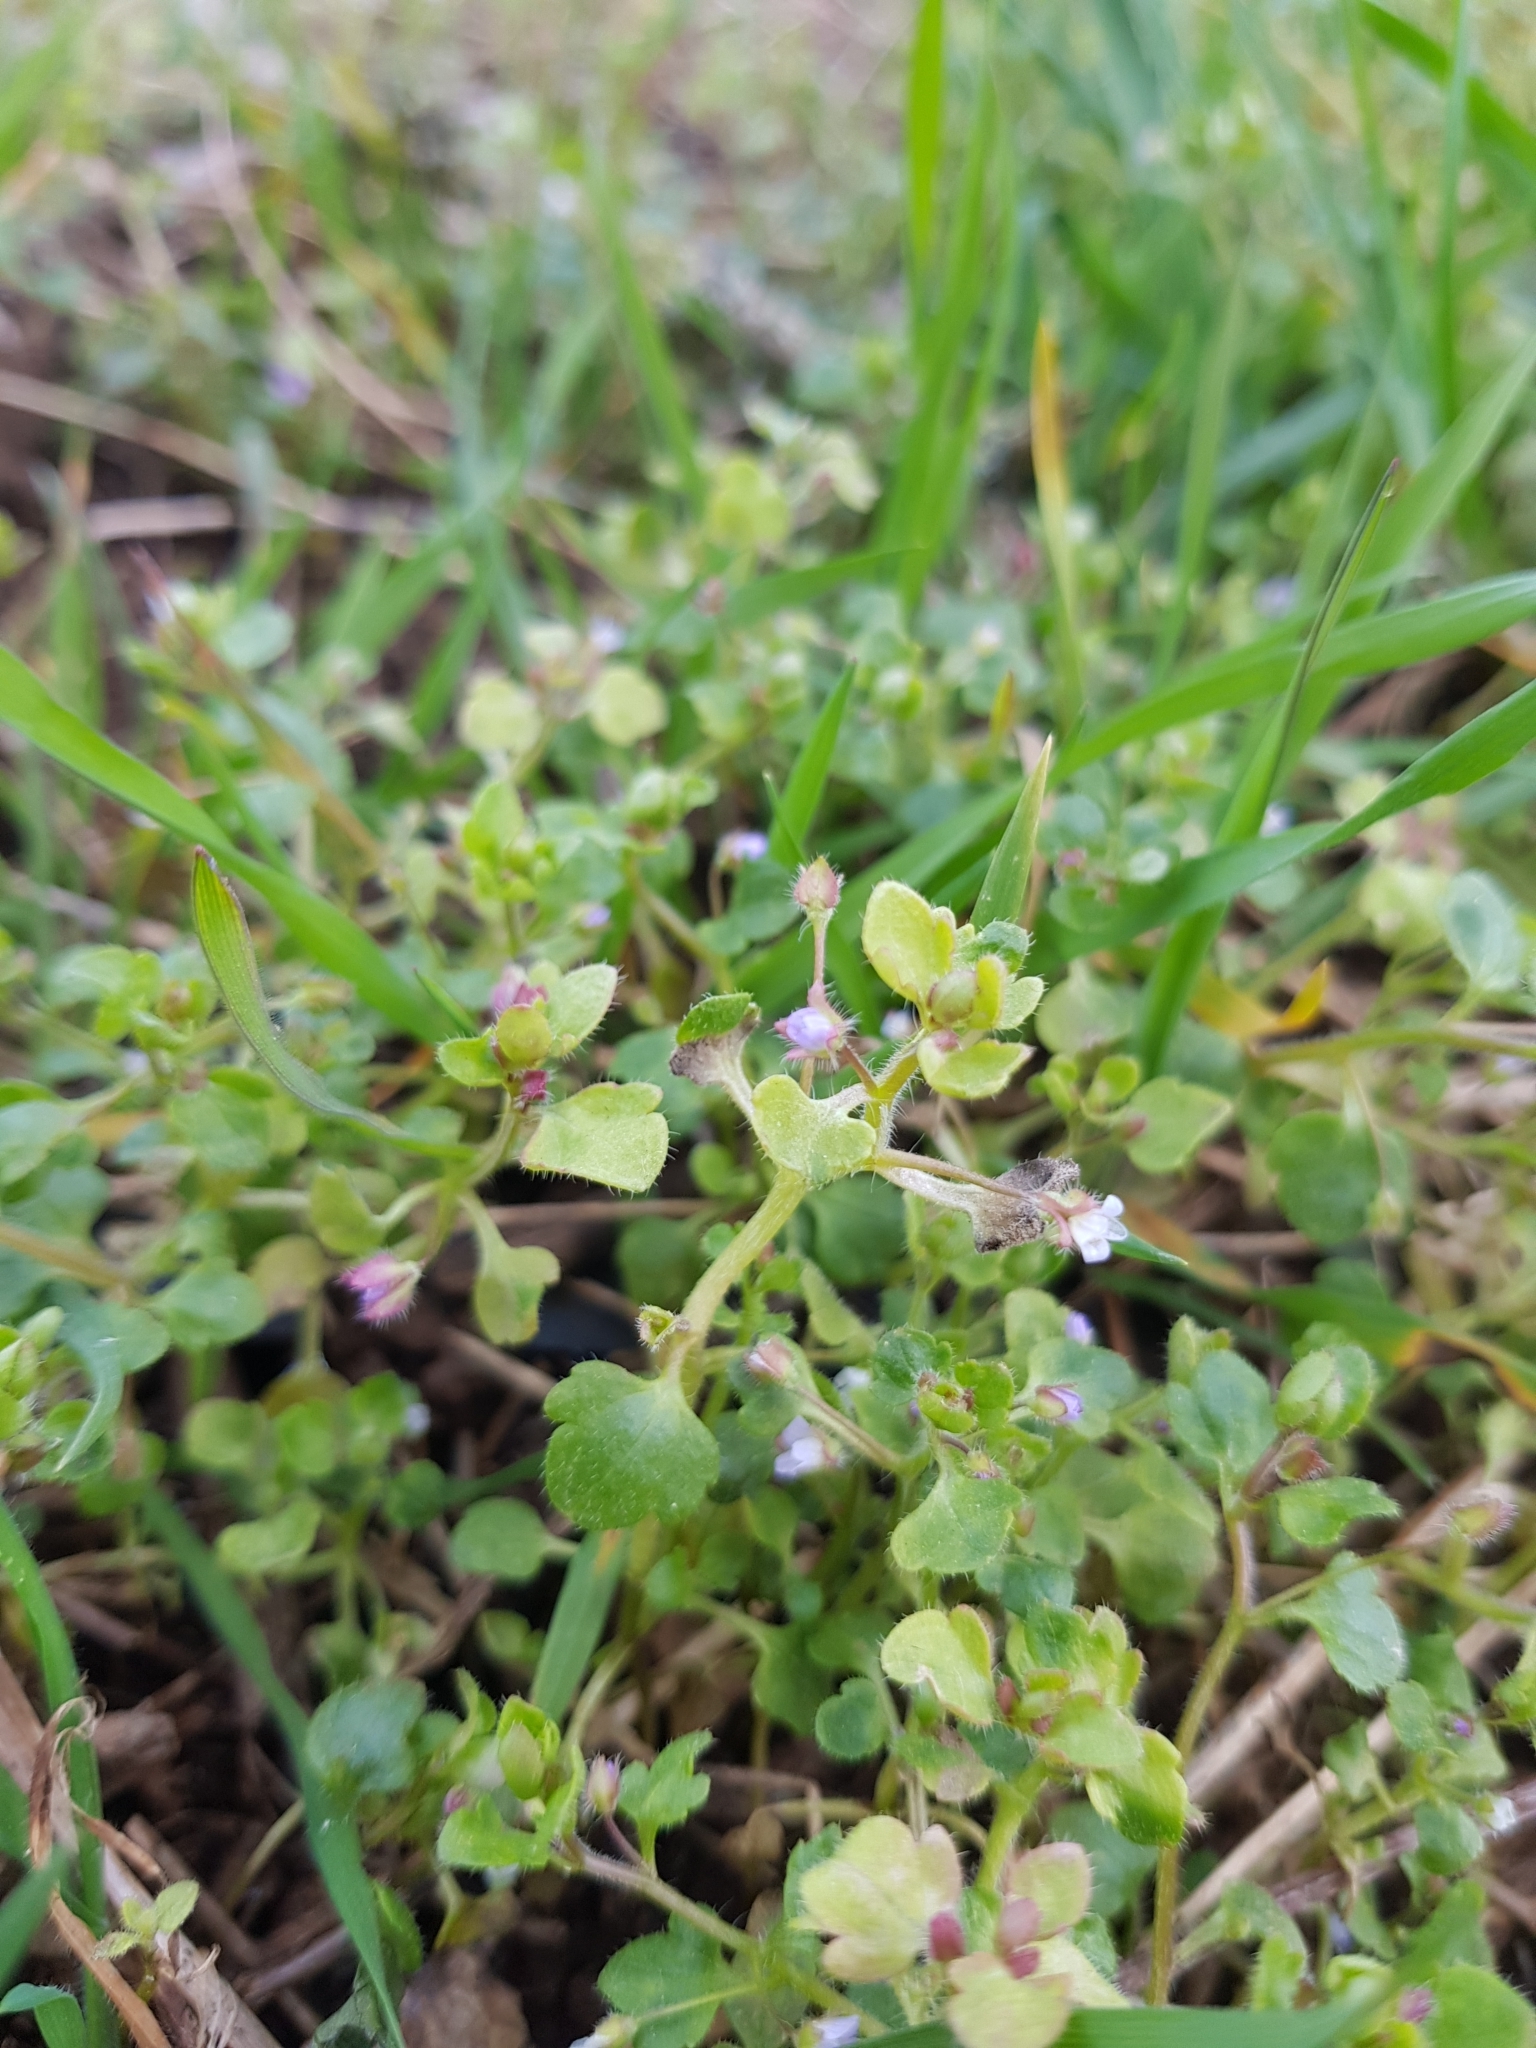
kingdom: Plantae
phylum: Tracheophyta
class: Magnoliopsida
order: Lamiales
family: Plantaginaceae
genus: Veronica
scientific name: Veronica hederifolia
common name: Ivy-leaved speedwell
